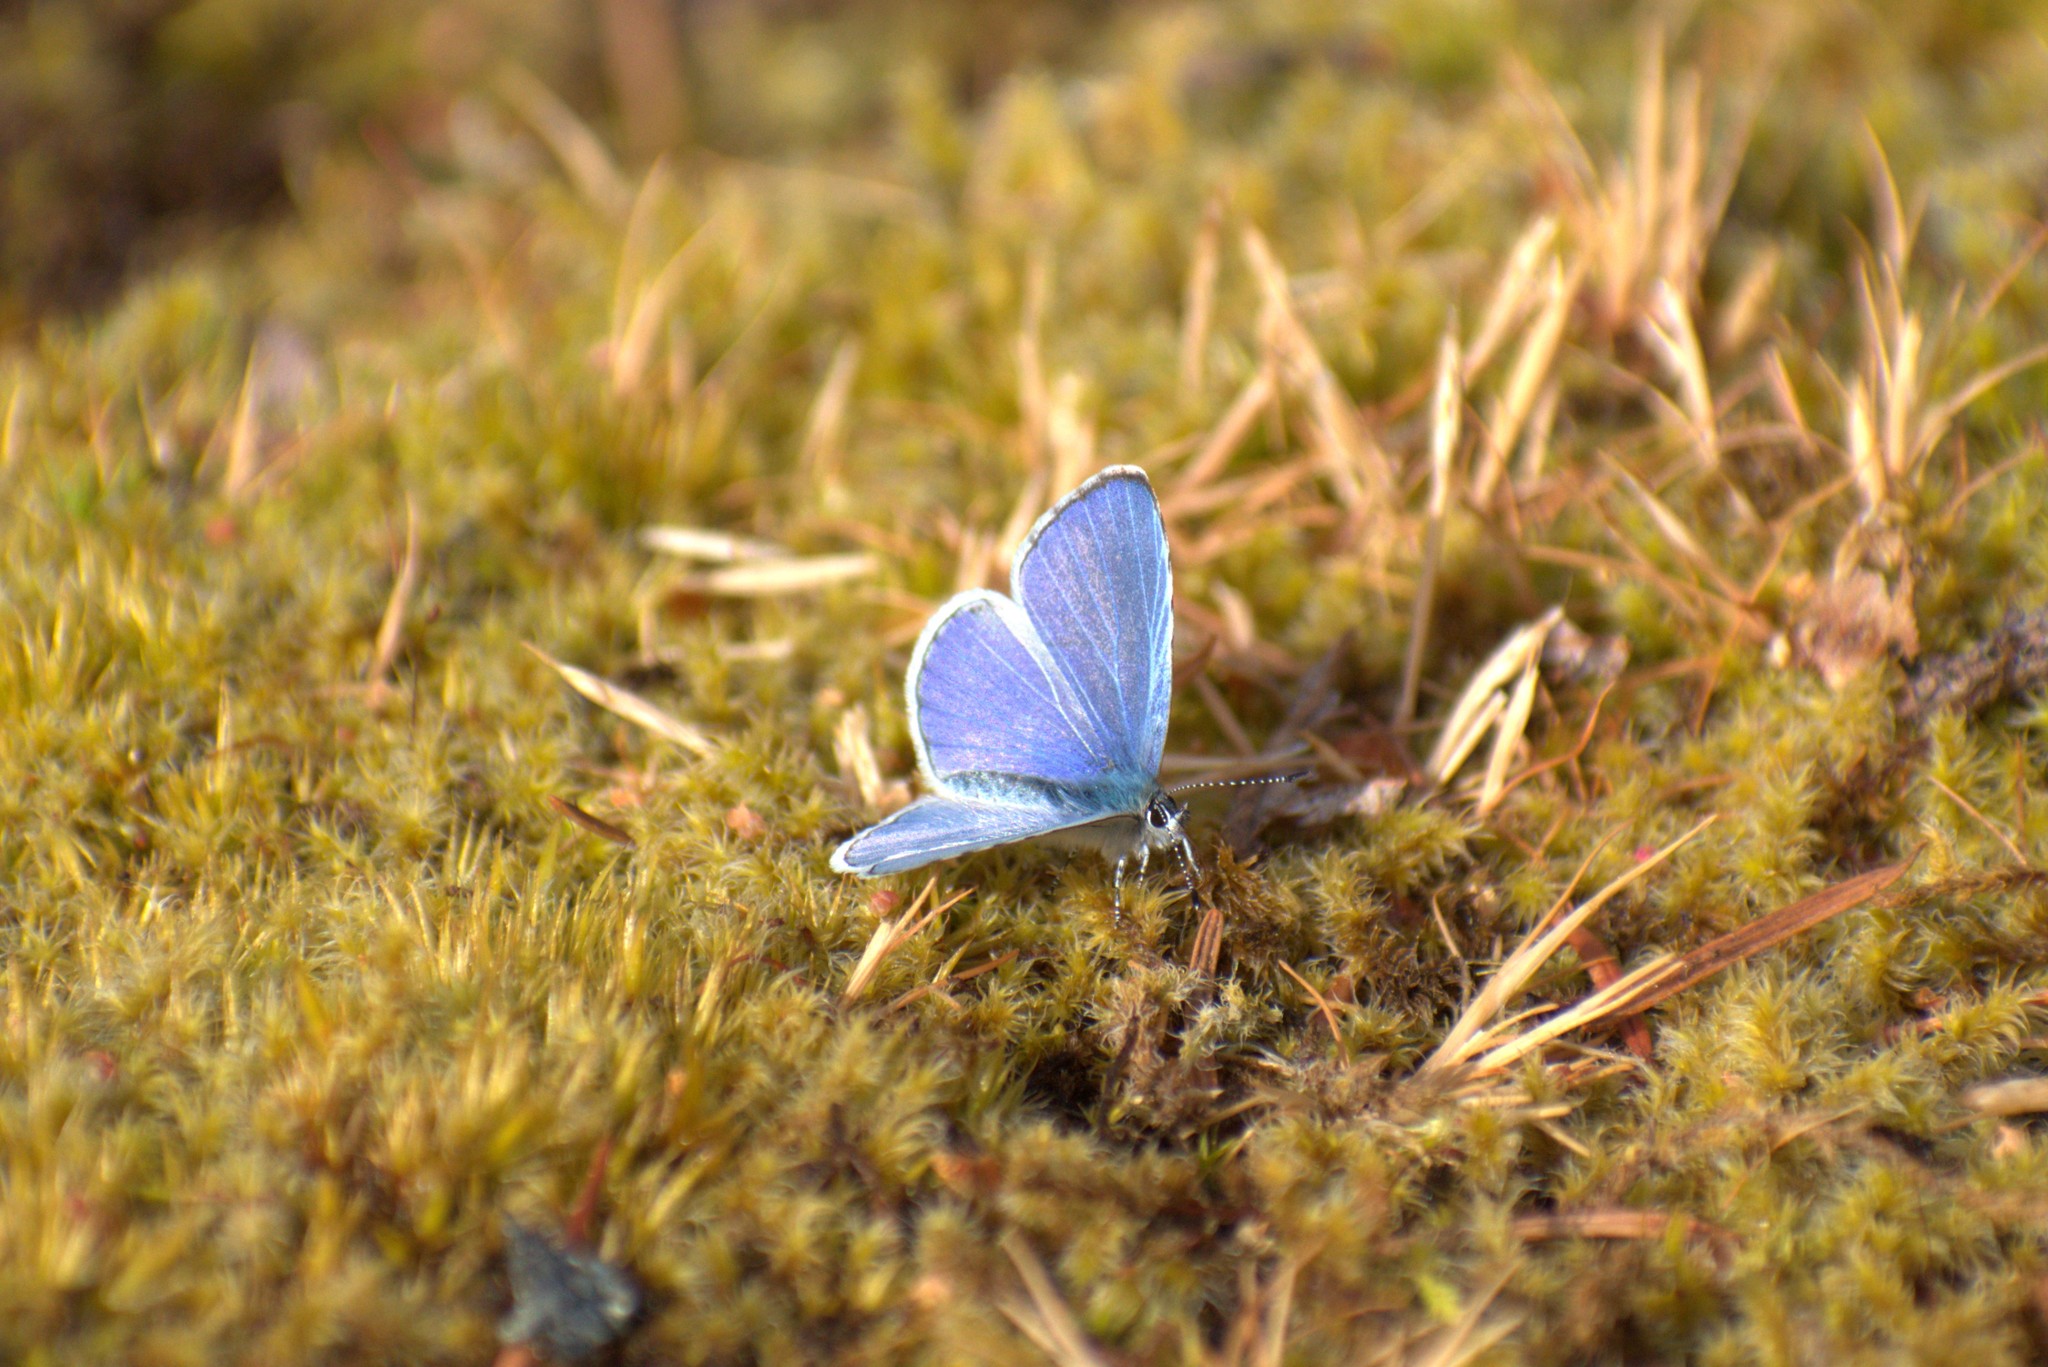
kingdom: Animalia
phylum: Arthropoda
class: Insecta
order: Lepidoptera
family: Lycaenidae
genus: Celastrina
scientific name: Celastrina ladon
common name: Spring azure
